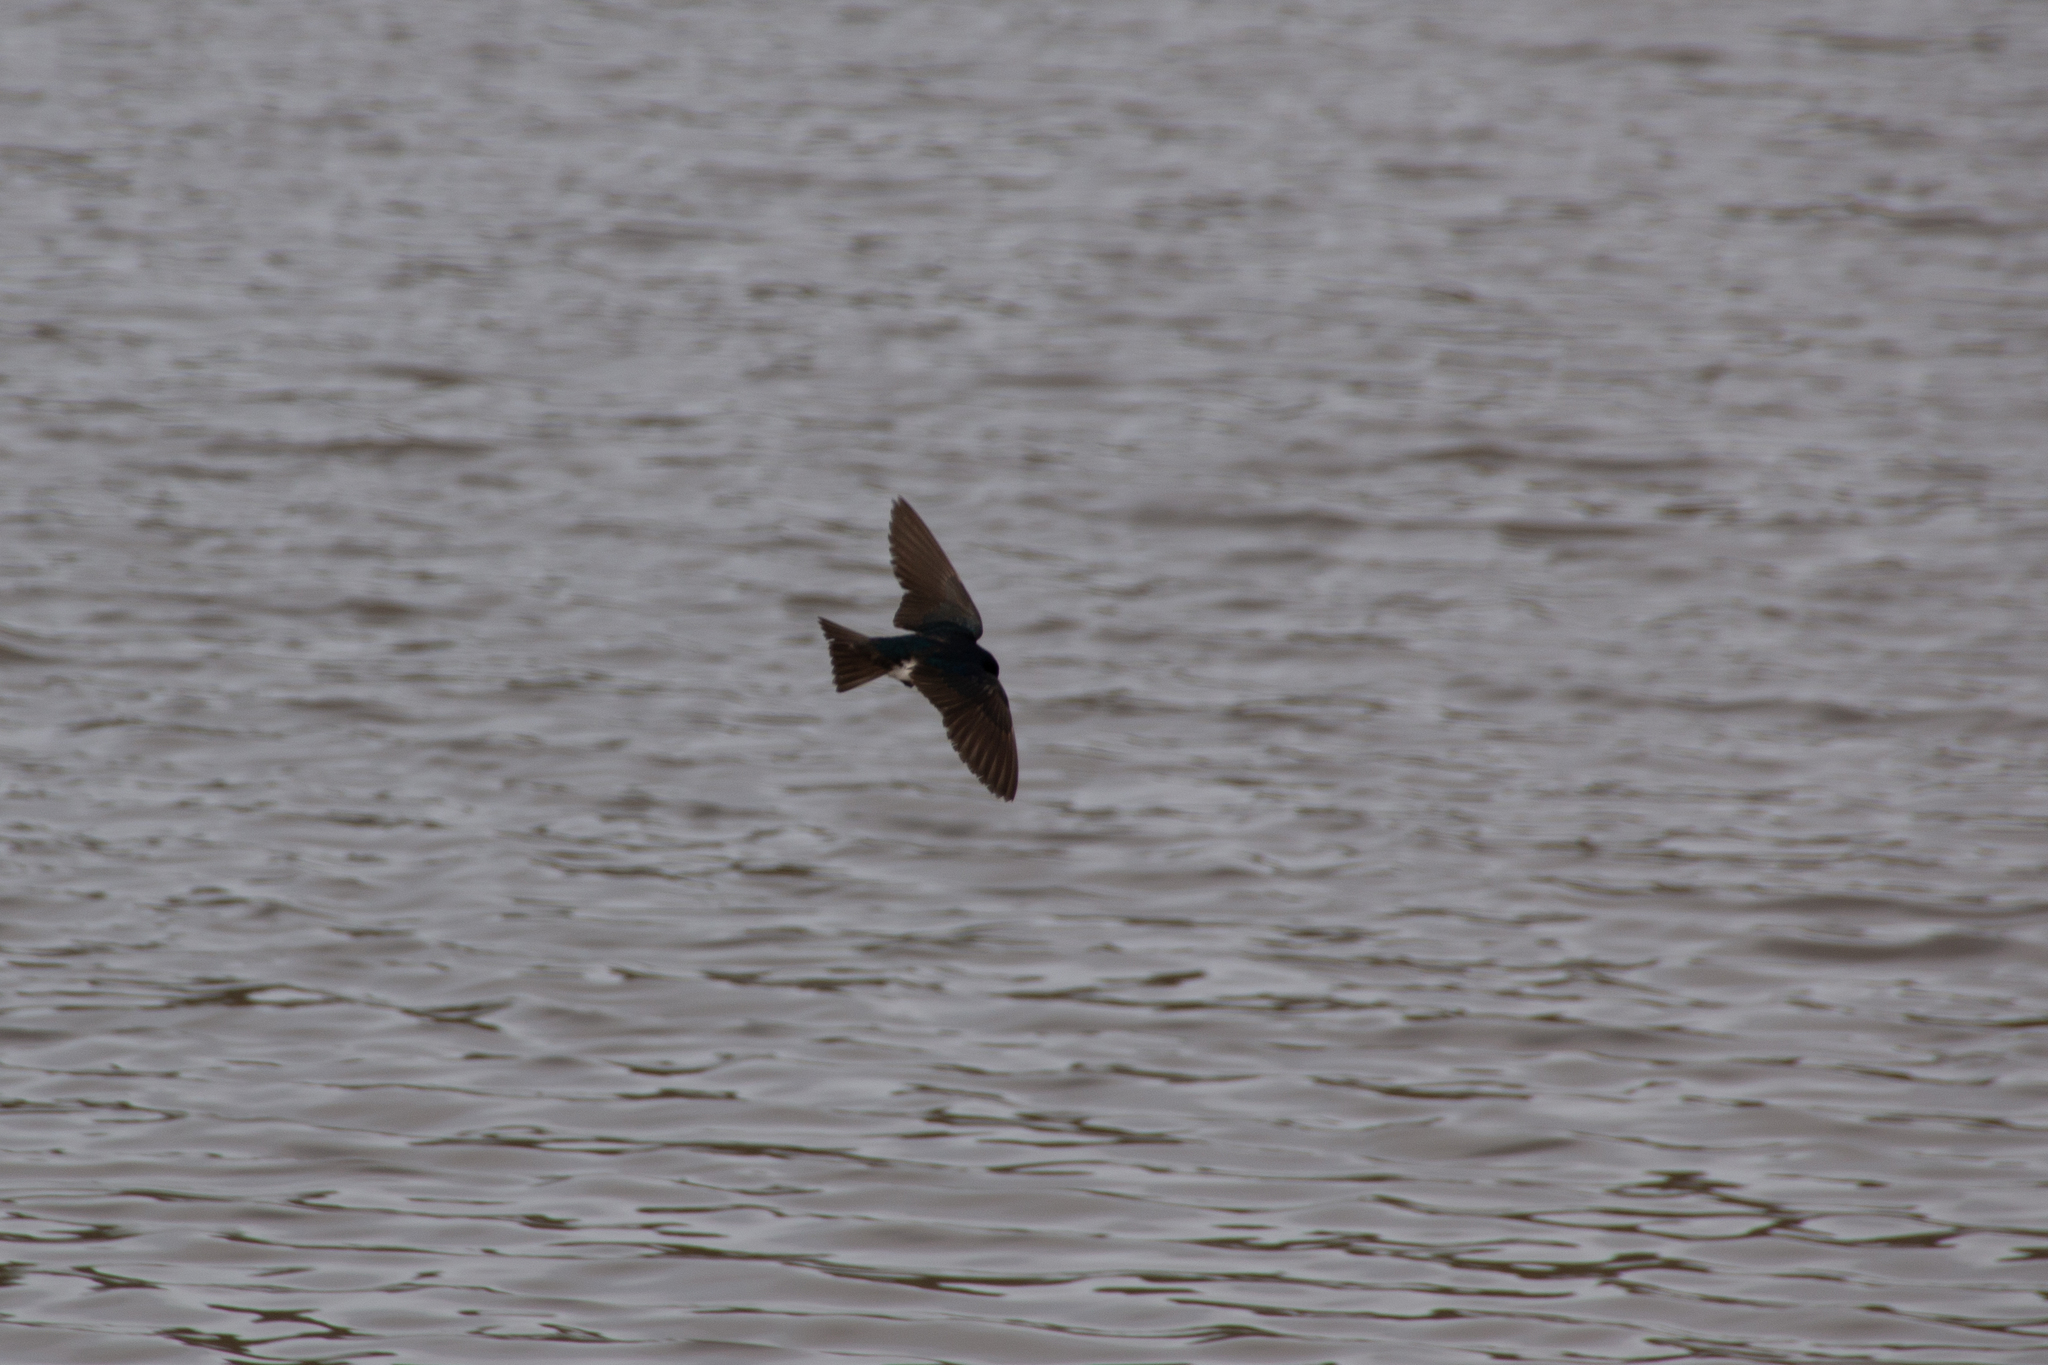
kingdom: Animalia
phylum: Chordata
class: Aves
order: Passeriformes
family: Hirundinidae
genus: Tachycineta
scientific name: Tachycineta bicolor
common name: Tree swallow
